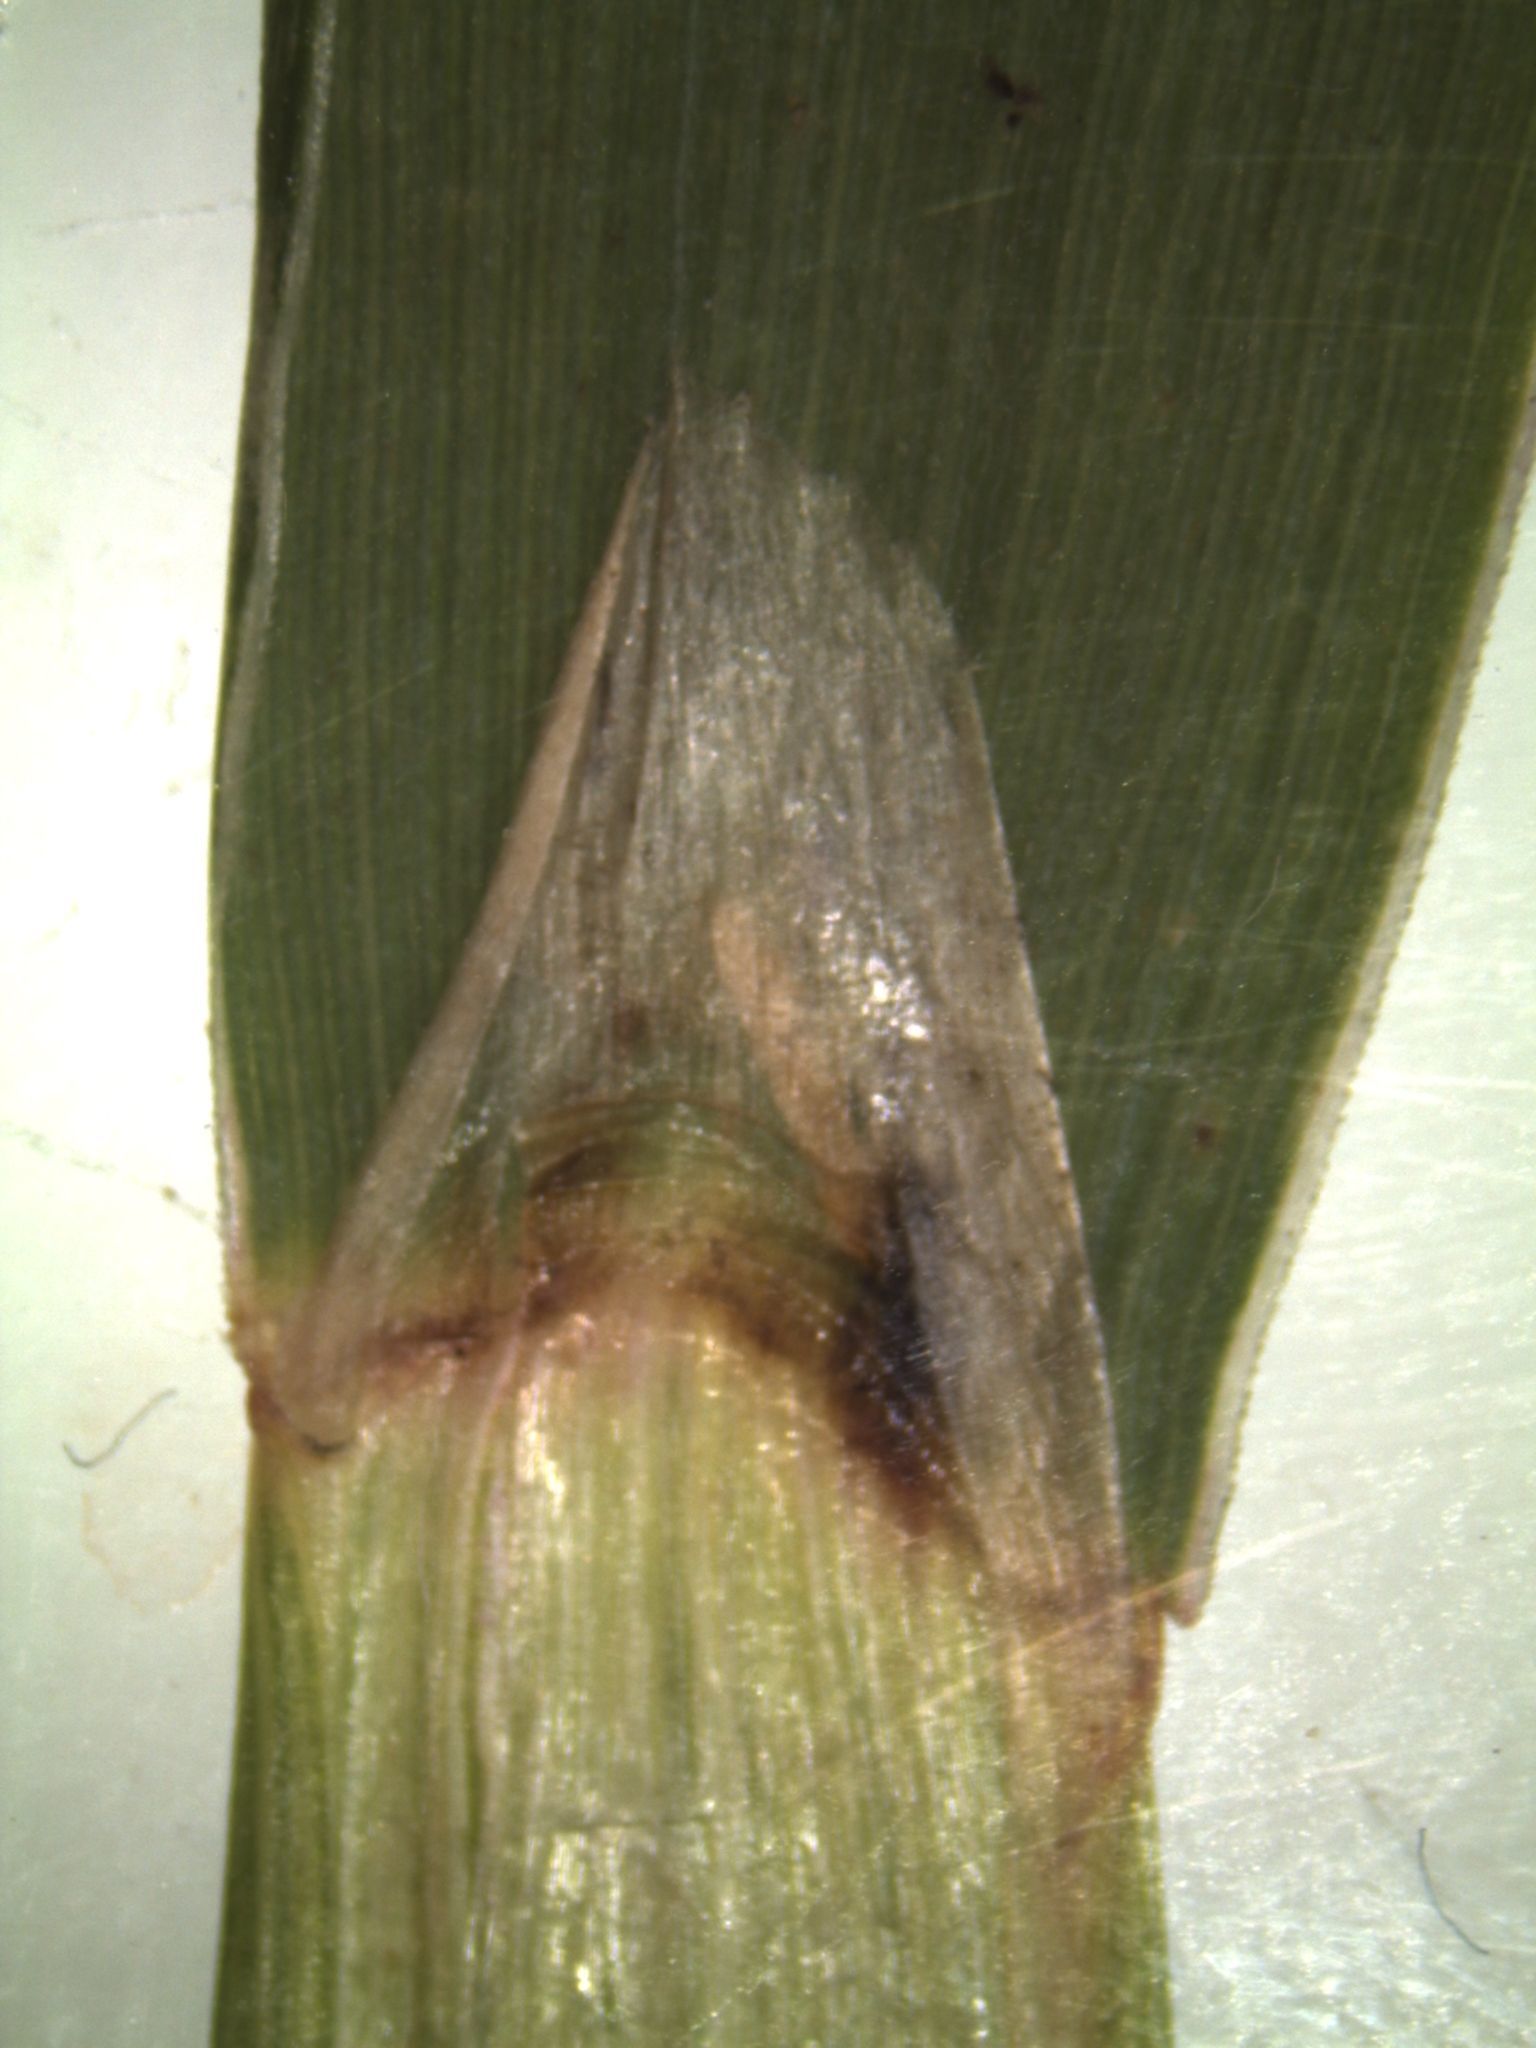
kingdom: Plantae
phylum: Tracheophyta
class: Liliopsida
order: Poales
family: Poaceae
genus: Anthoxanthum
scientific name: Anthoxanthum redolens
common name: Sweet holy grass
